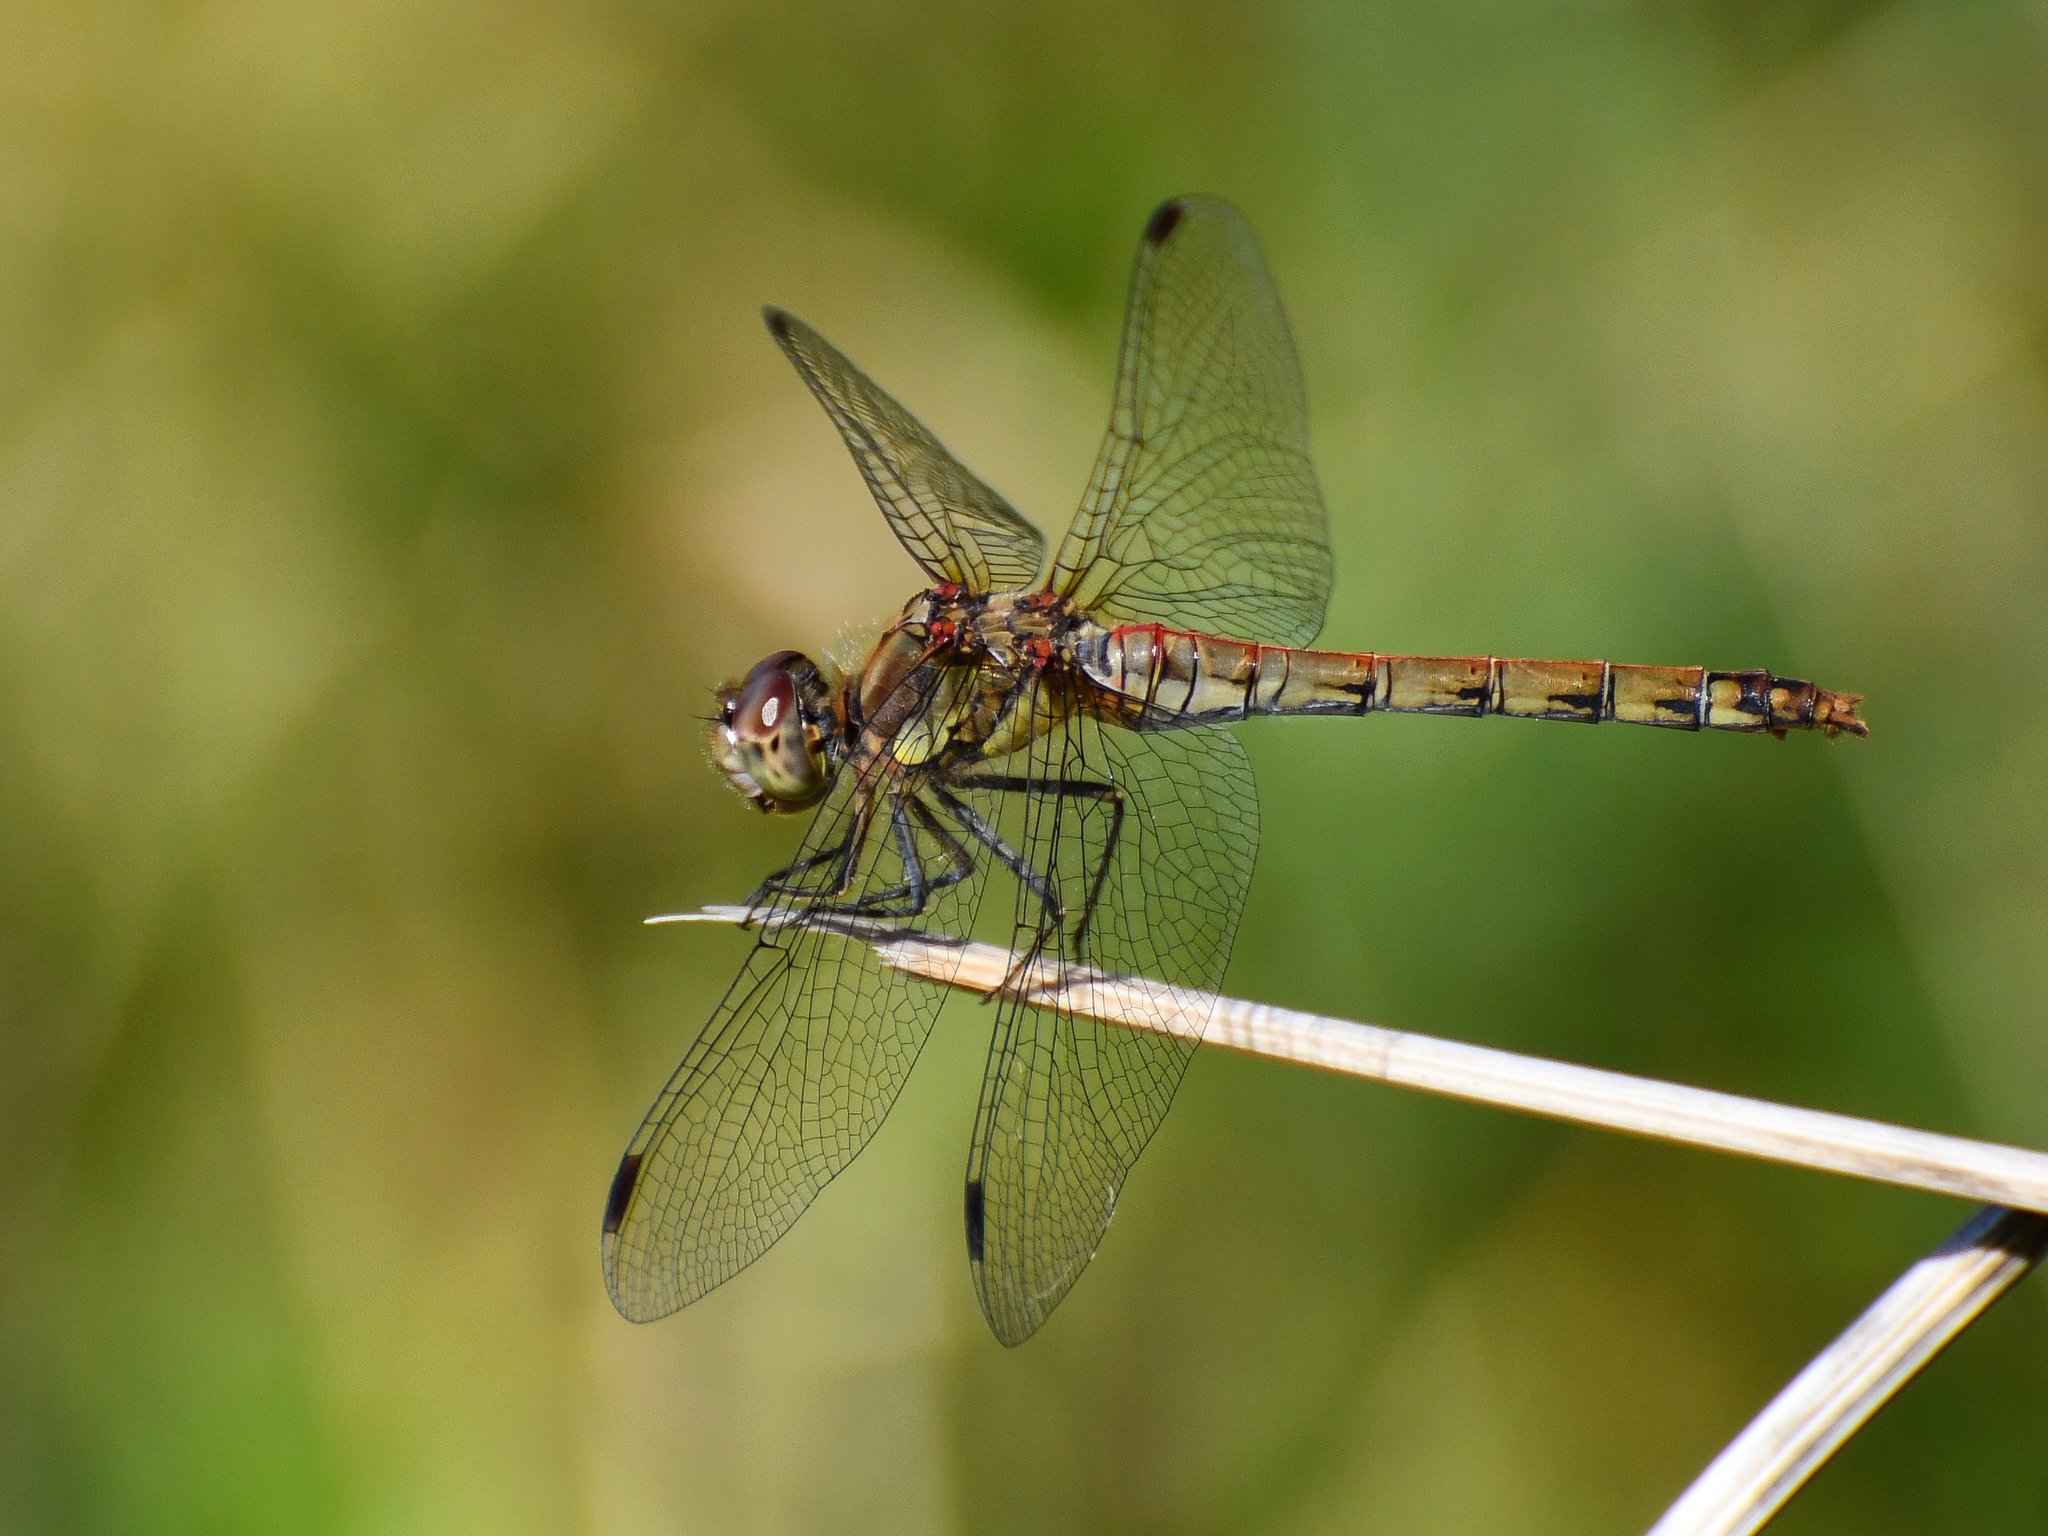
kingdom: Animalia
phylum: Arthropoda
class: Insecta
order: Odonata
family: Libellulidae
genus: Sympetrum
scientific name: Sympetrum striolatum
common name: Common darter
